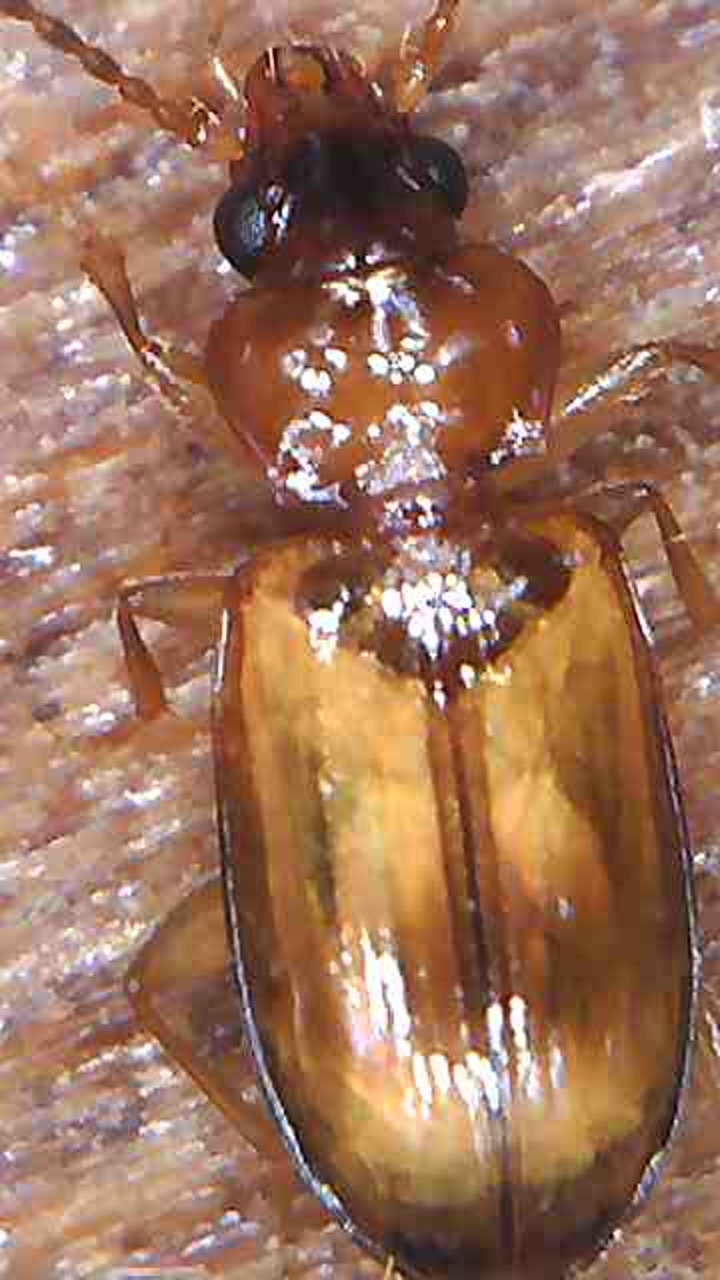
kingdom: Animalia
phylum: Arthropoda
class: Insecta
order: Coleoptera
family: Carabidae
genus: Tachys
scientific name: Tachys crypticola
